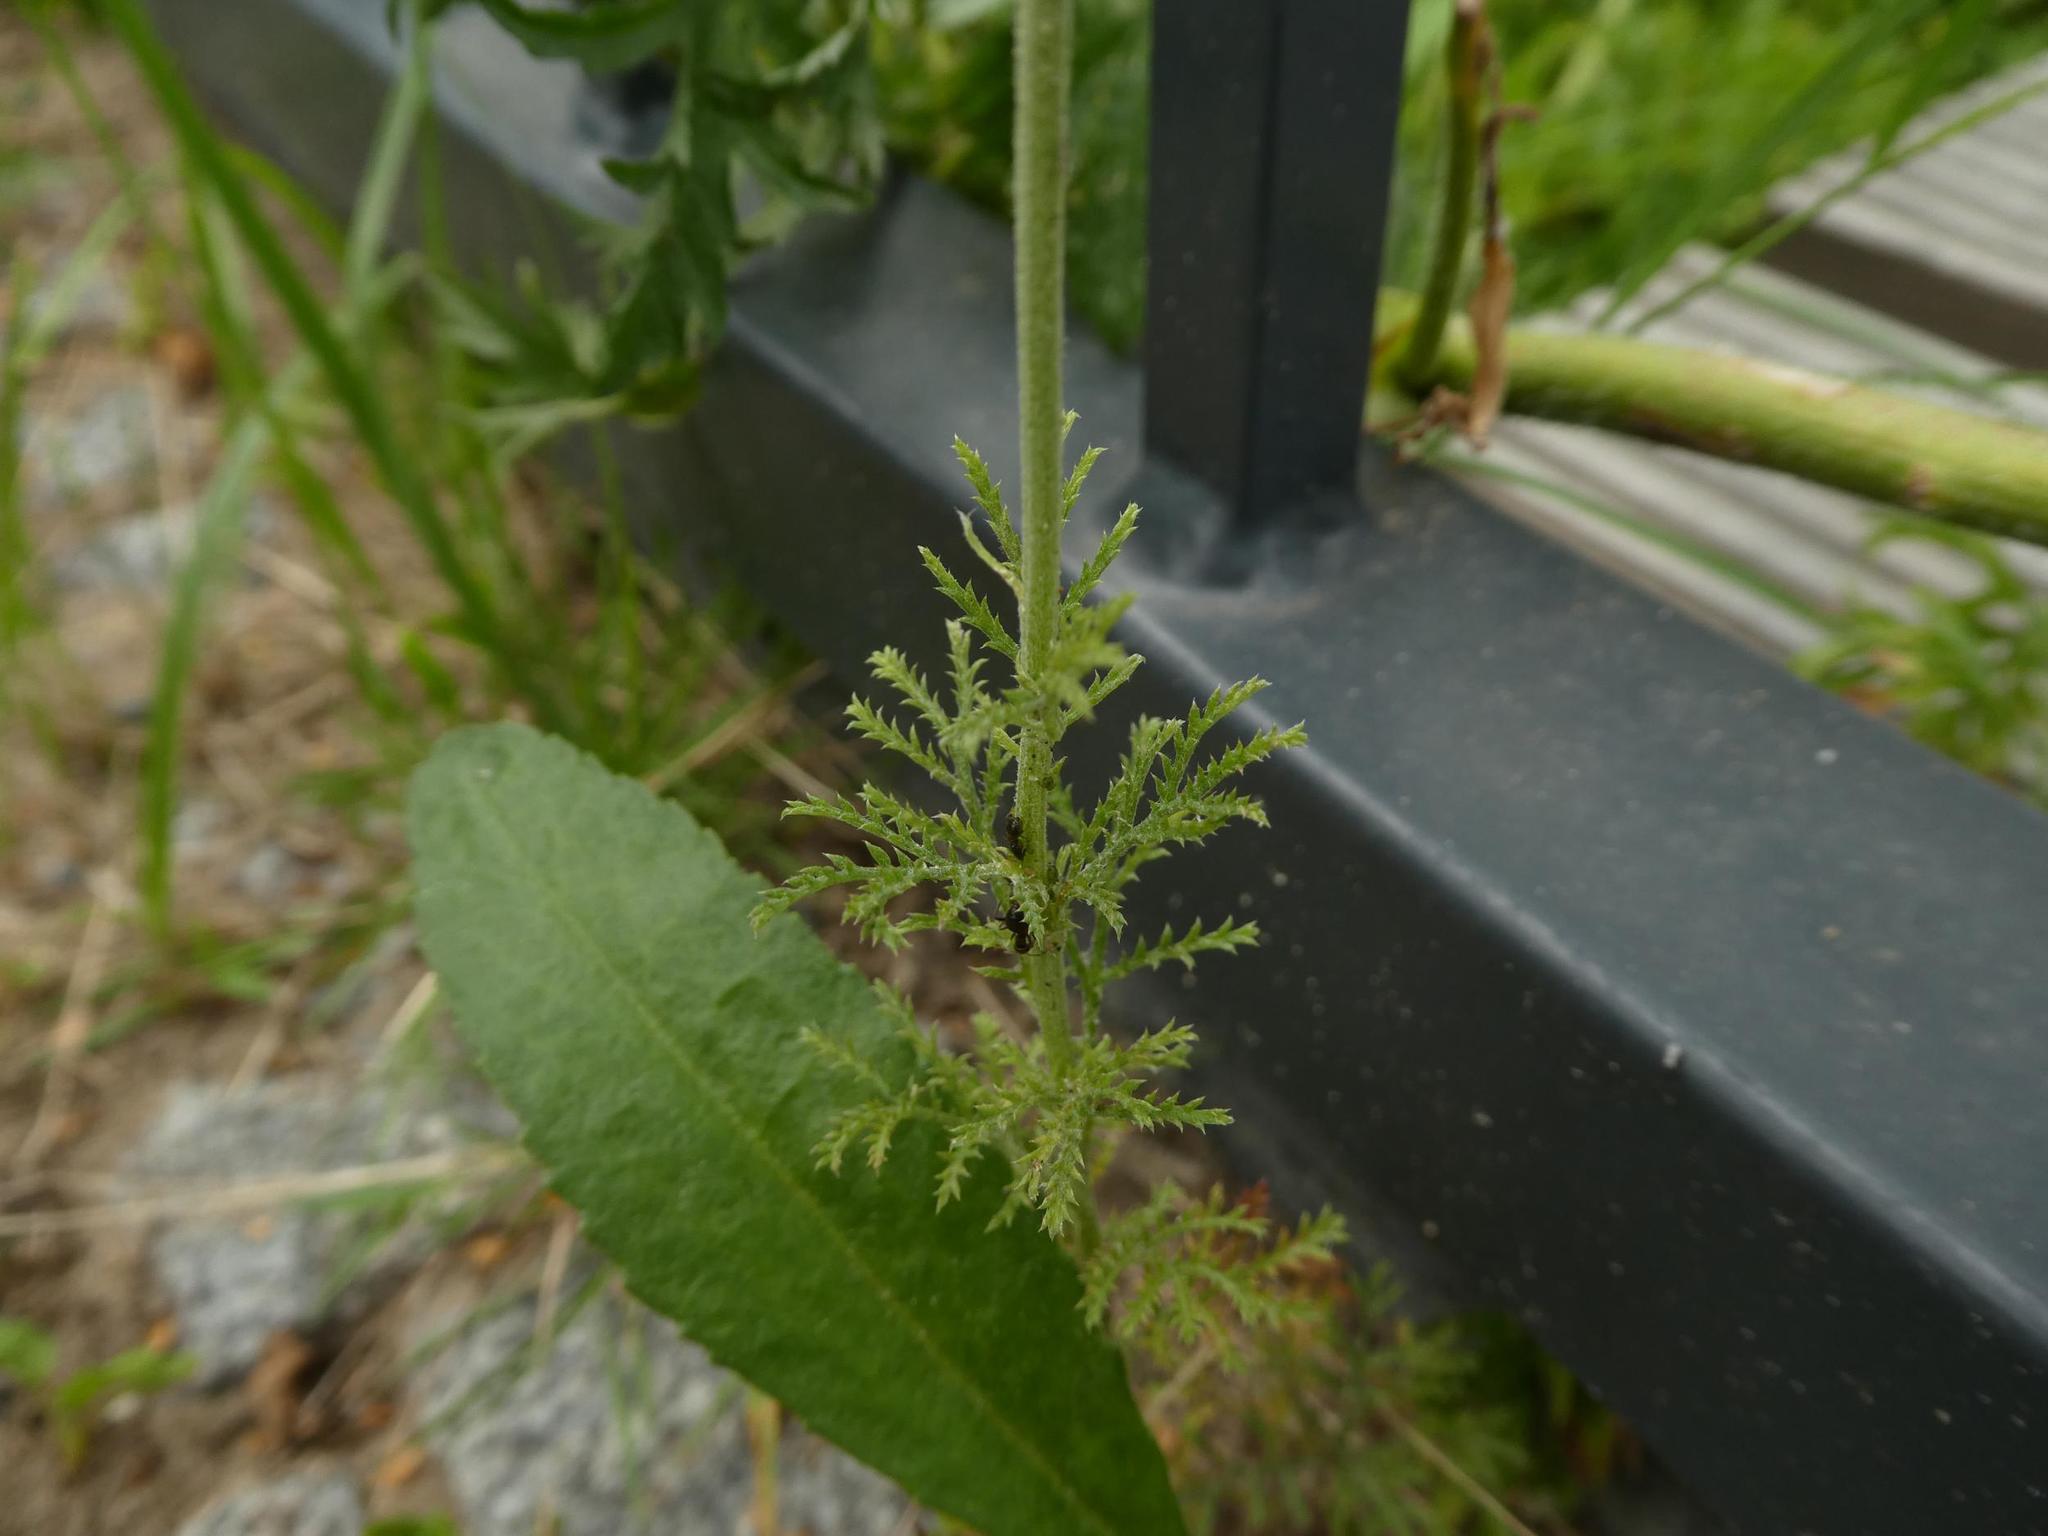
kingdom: Plantae
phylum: Tracheophyta
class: Magnoliopsida
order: Asterales
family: Asteraceae
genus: Cota
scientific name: Cota tinctoria
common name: Golden chamomile
